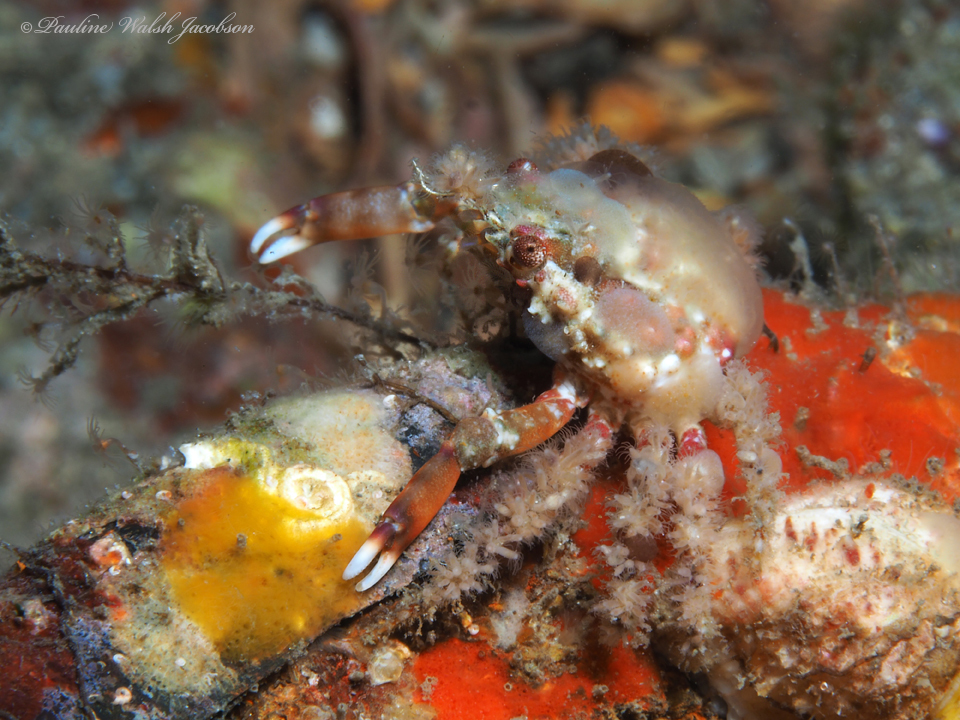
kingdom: Animalia
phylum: Arthropoda
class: Malacostraca
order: Decapoda
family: Mithracidae
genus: Omalacantha
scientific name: Omalacantha bicornuta
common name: Two-horned spider crab
